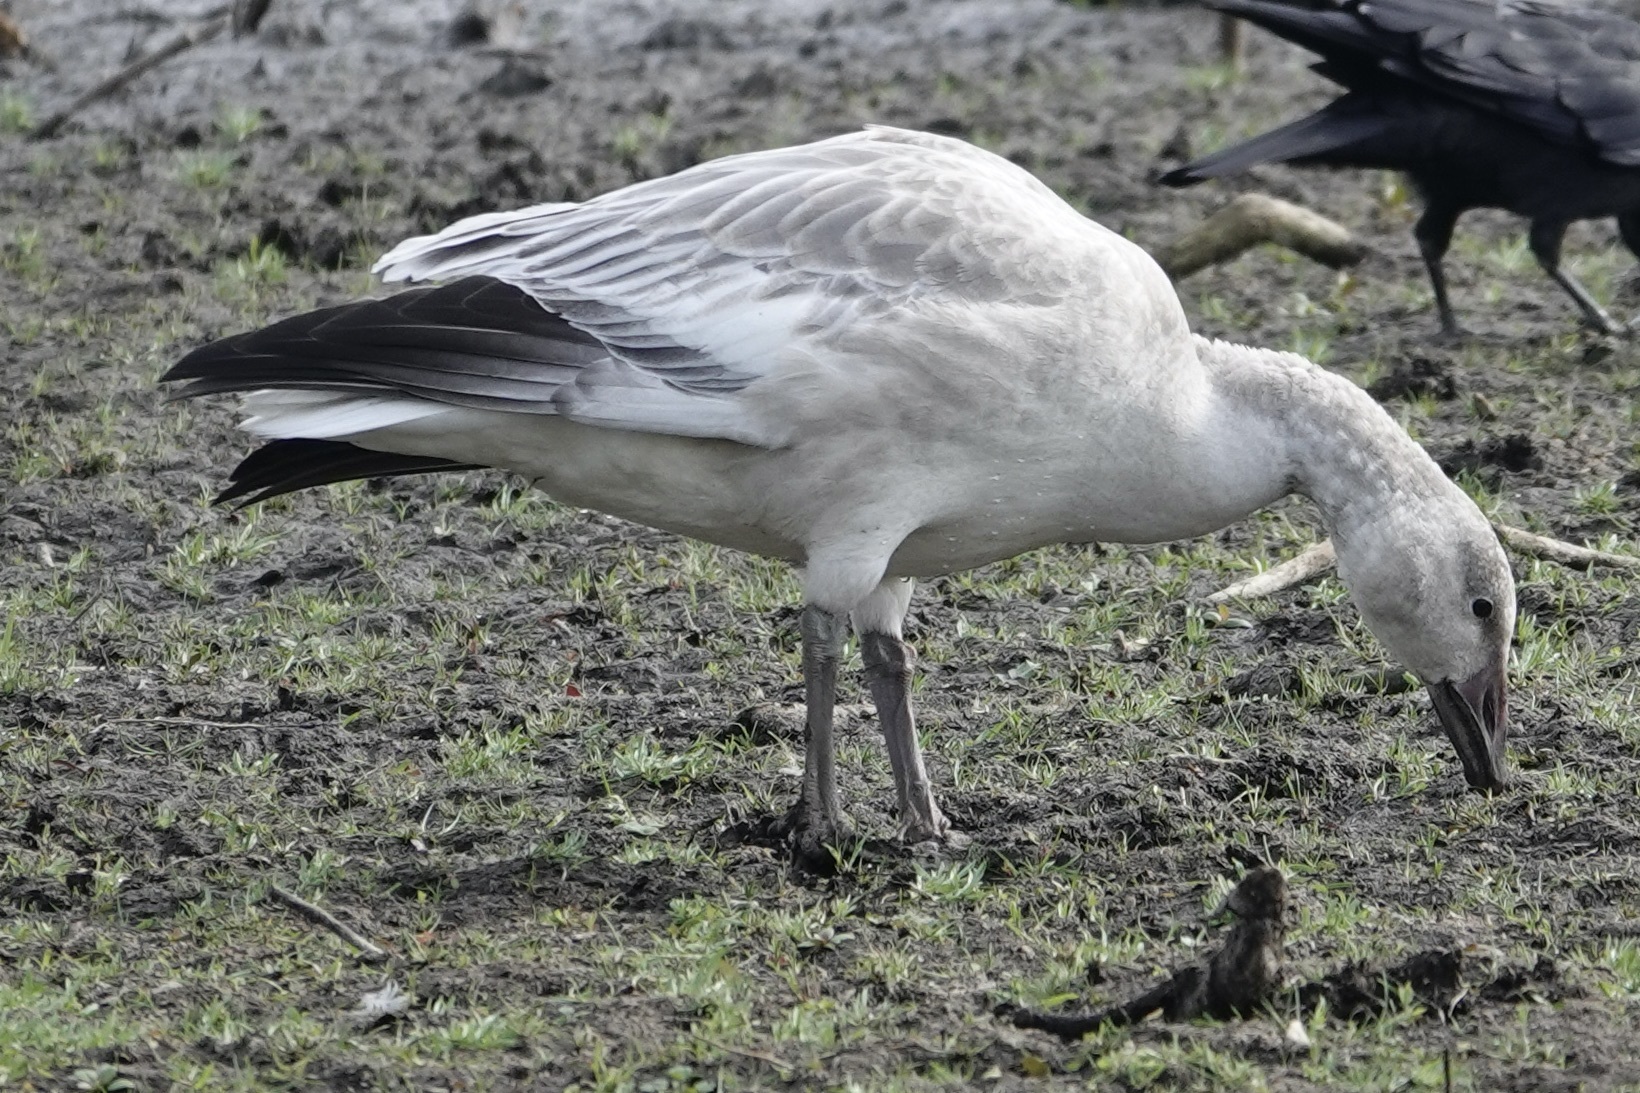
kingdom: Animalia
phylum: Chordata
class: Aves
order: Anseriformes
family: Anatidae
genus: Anser
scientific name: Anser caerulescens
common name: Snow goose
